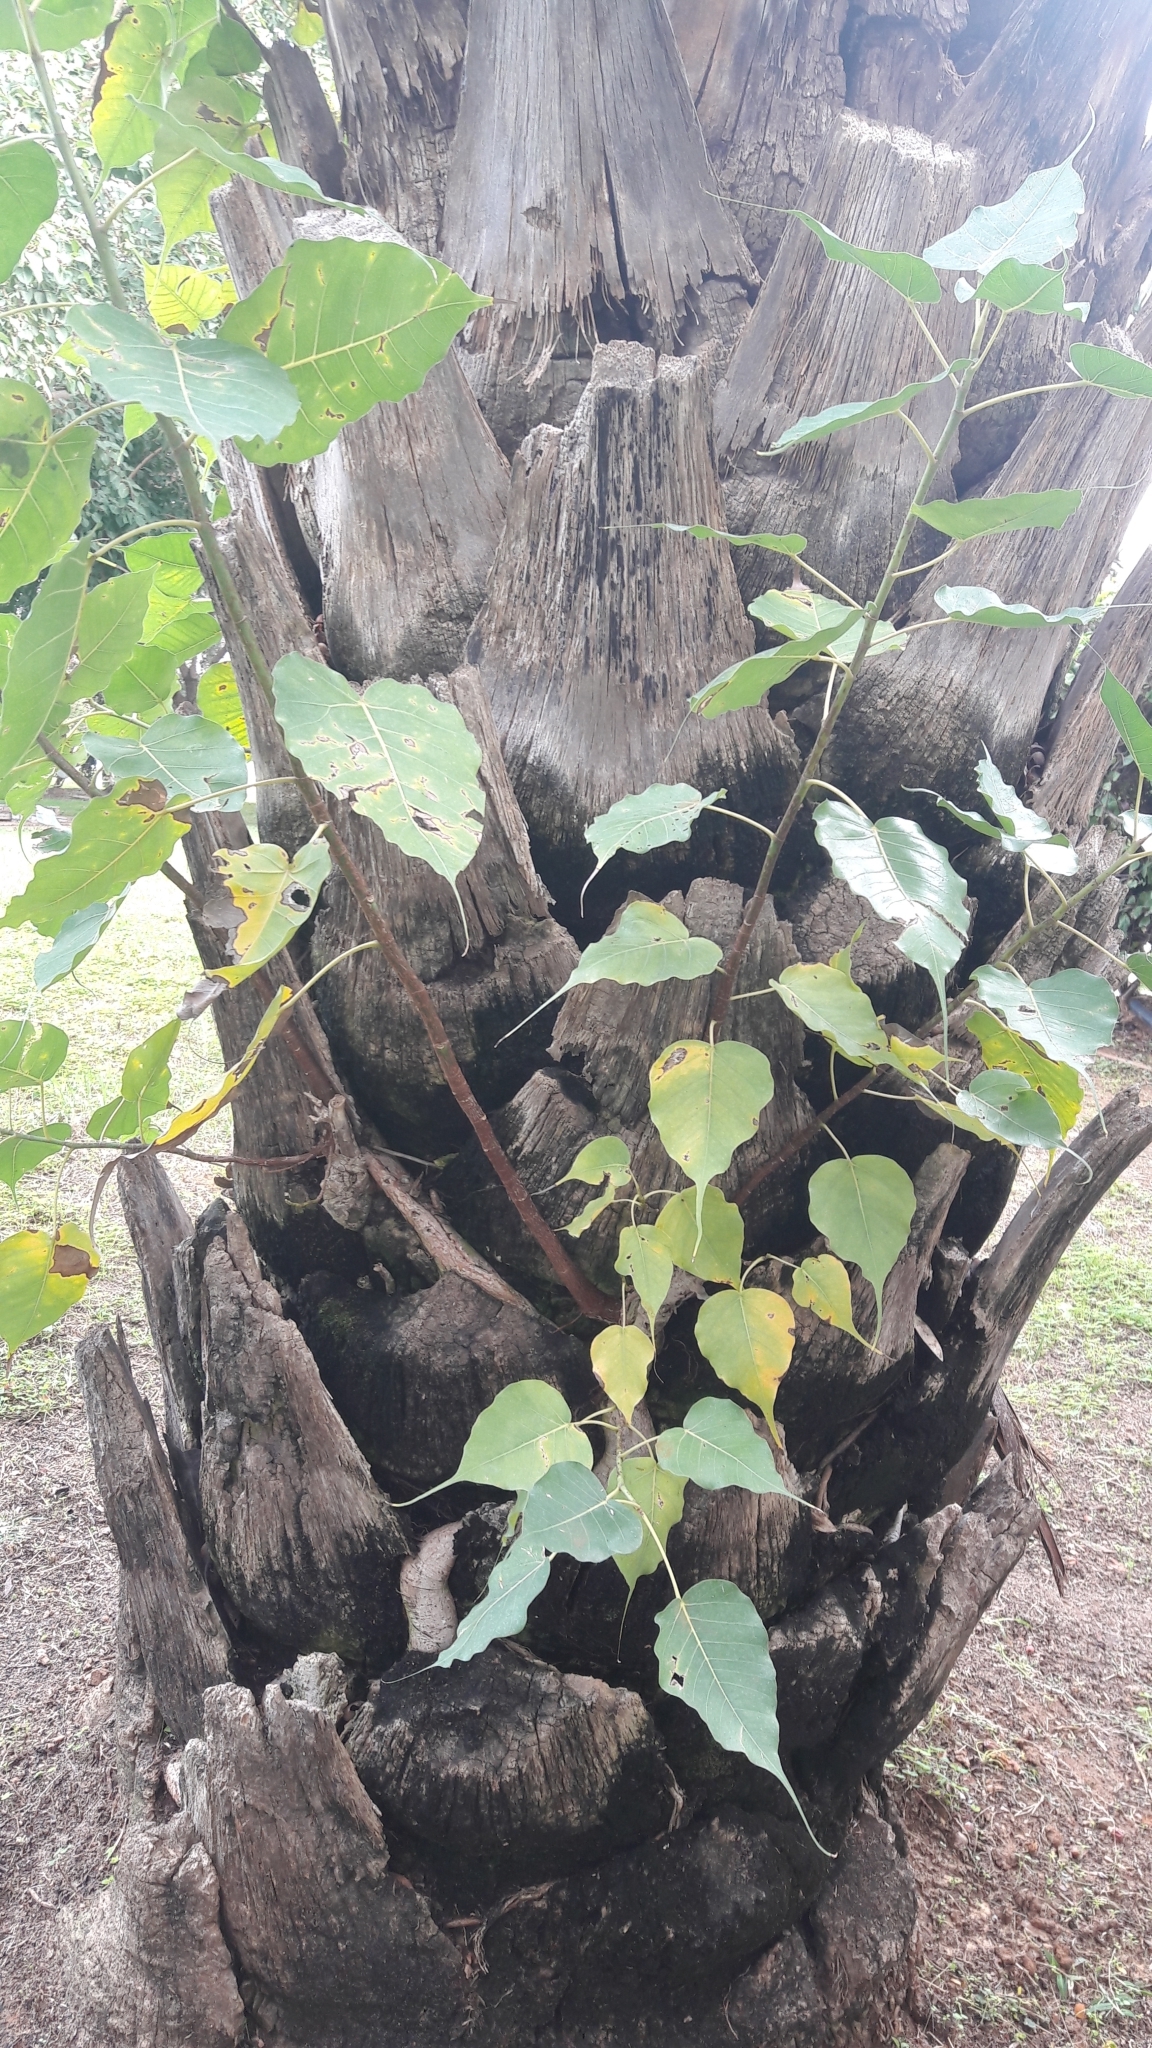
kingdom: Plantae
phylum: Tracheophyta
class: Magnoliopsida
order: Rosales
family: Moraceae
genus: Ficus
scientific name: Ficus religiosa
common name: Bodhi tree
